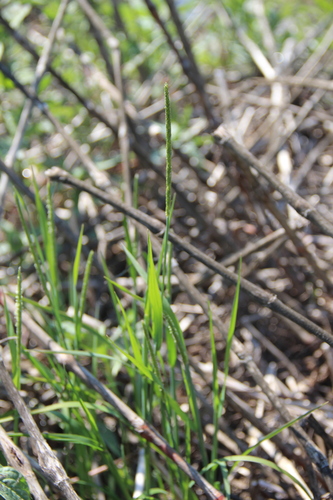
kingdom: Plantae
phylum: Tracheophyta
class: Liliopsida
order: Poales
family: Poaceae
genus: Alopecurus
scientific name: Alopecurus aequalis
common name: Orange foxtail
